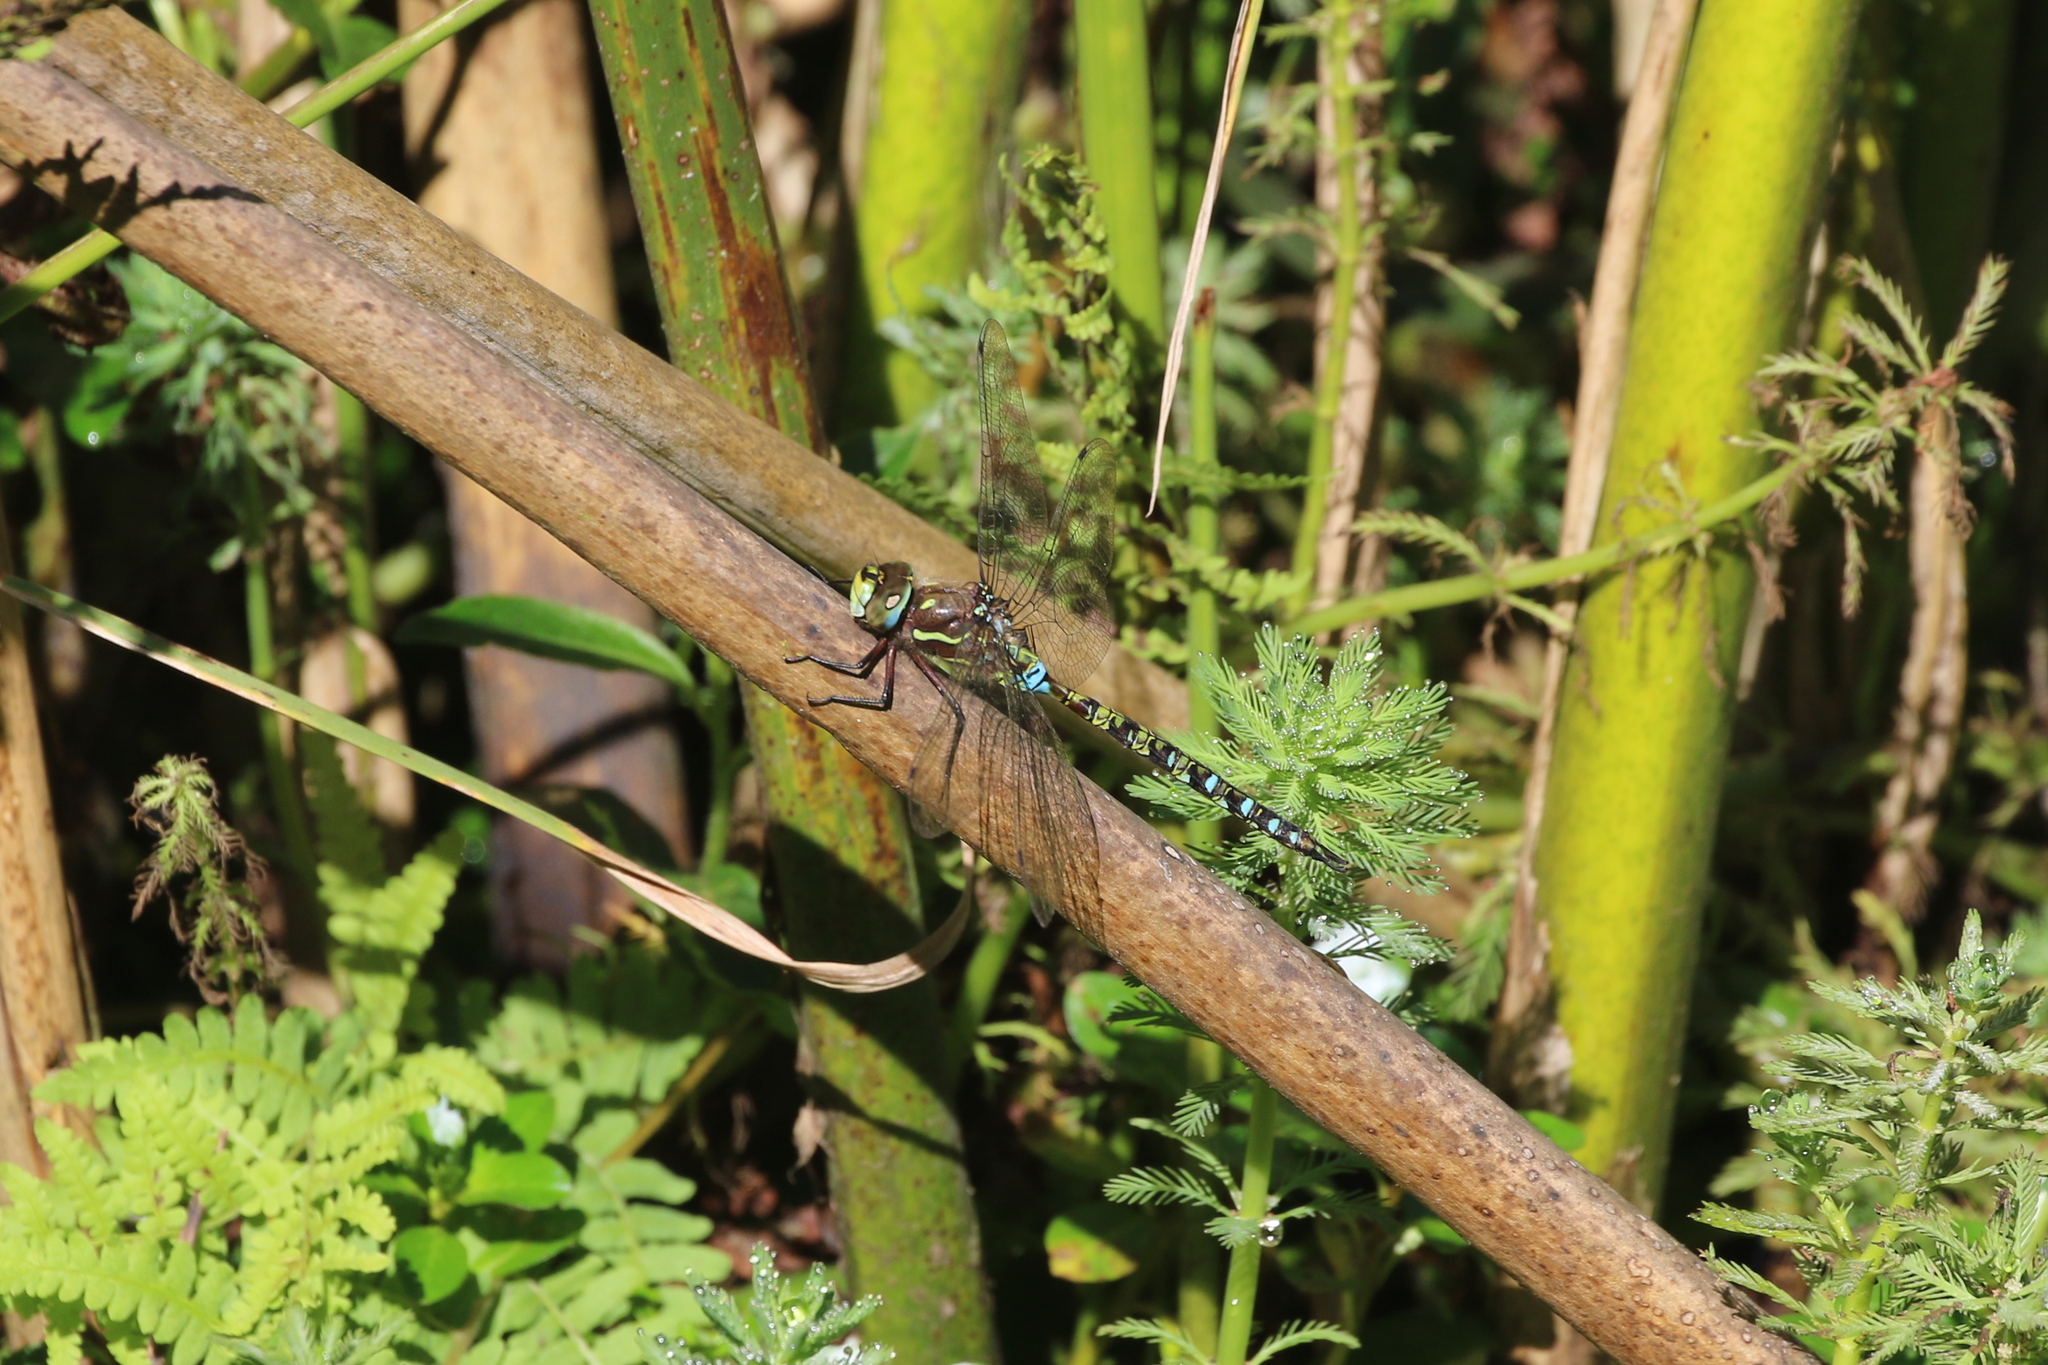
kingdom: Animalia
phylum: Arthropoda
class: Insecta
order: Odonata
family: Aeshnidae
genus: Rhionaeschna
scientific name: Rhionaeschna marchali
